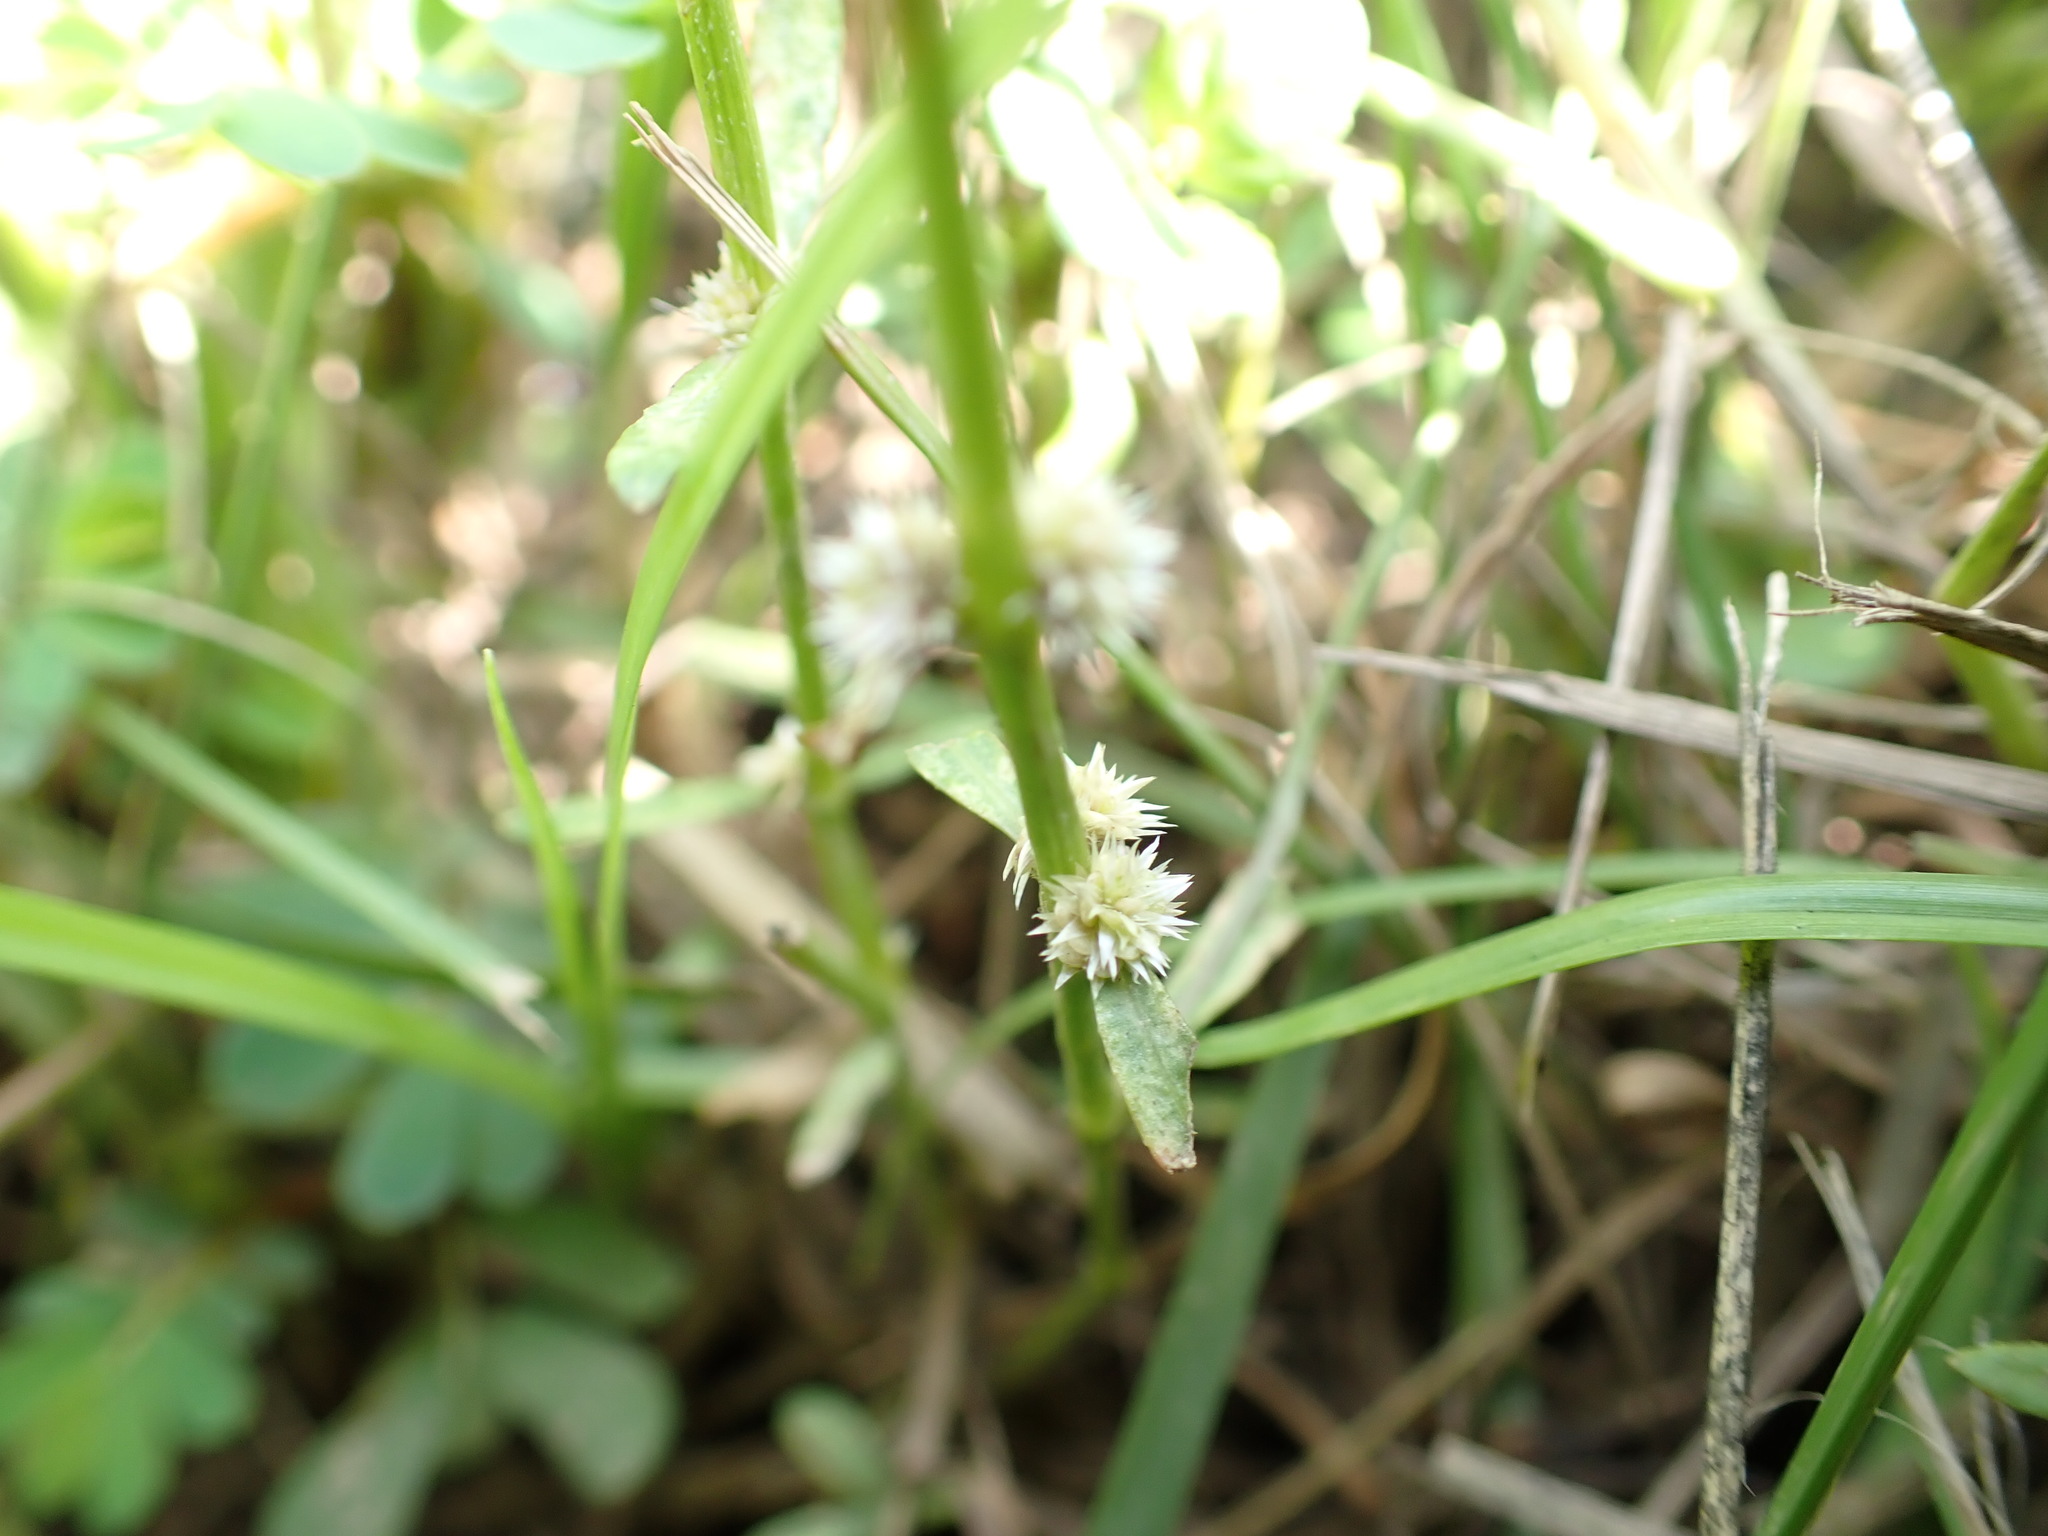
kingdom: Plantae
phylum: Tracheophyta
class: Magnoliopsida
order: Caryophyllales
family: Amaranthaceae
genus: Alternanthera
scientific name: Alternanthera sessilis
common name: Sessile joyweed
